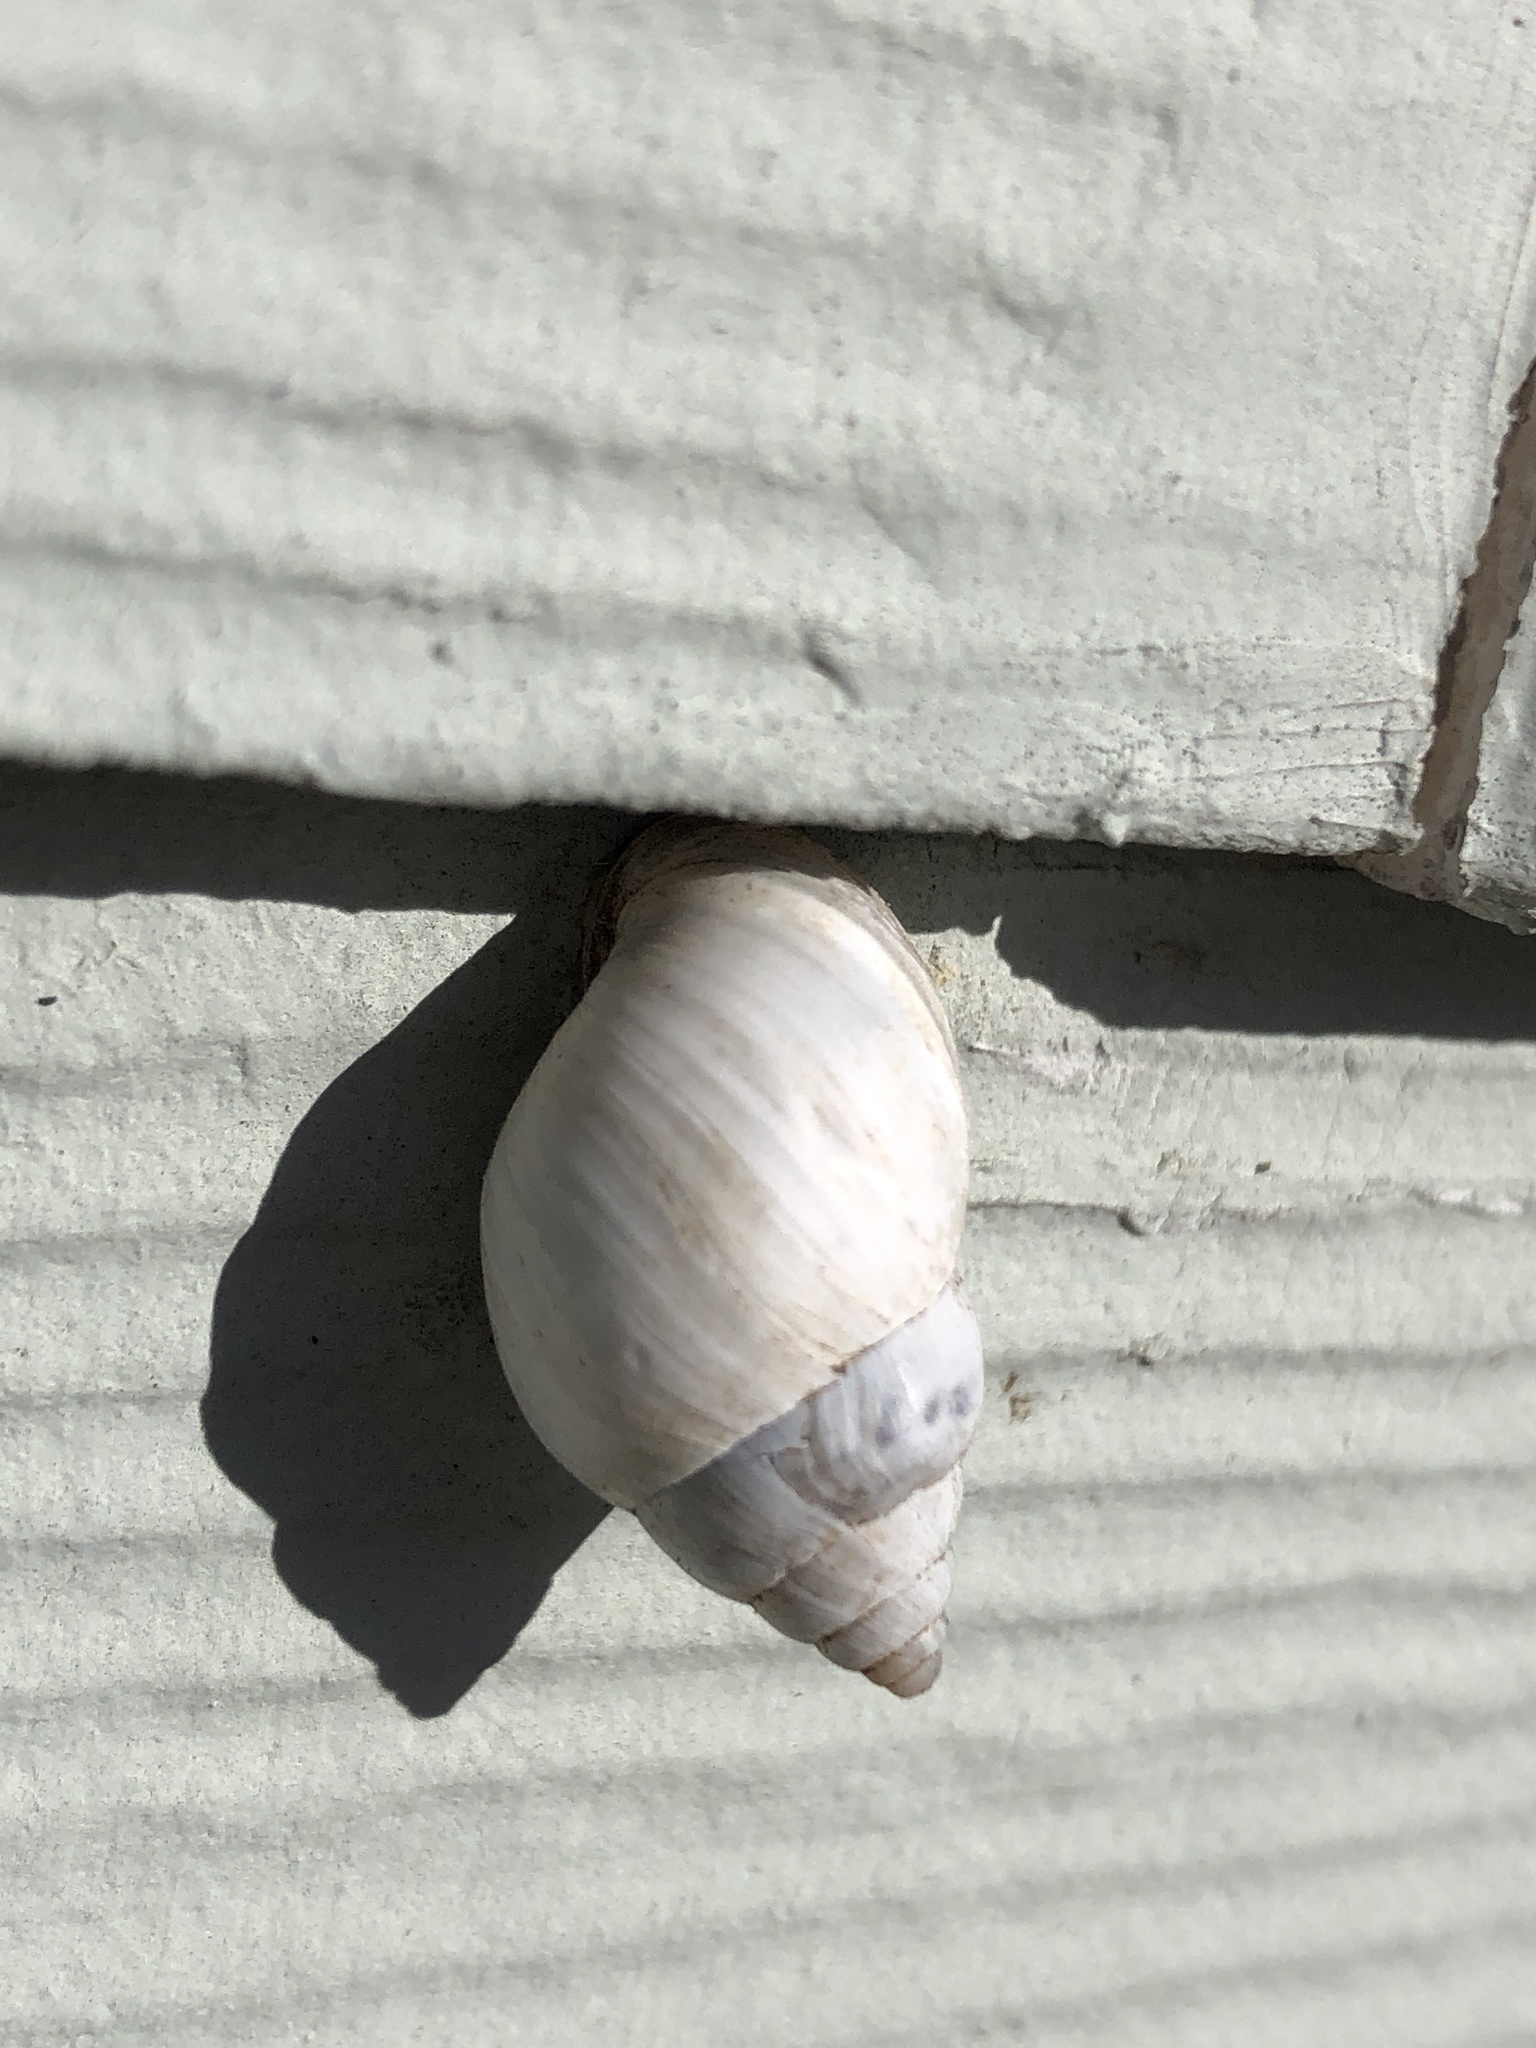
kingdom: Animalia
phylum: Mollusca
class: Gastropoda
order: Stylommatophora
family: Bulimulidae
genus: Rabdotus
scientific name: Rabdotus mooreanus
